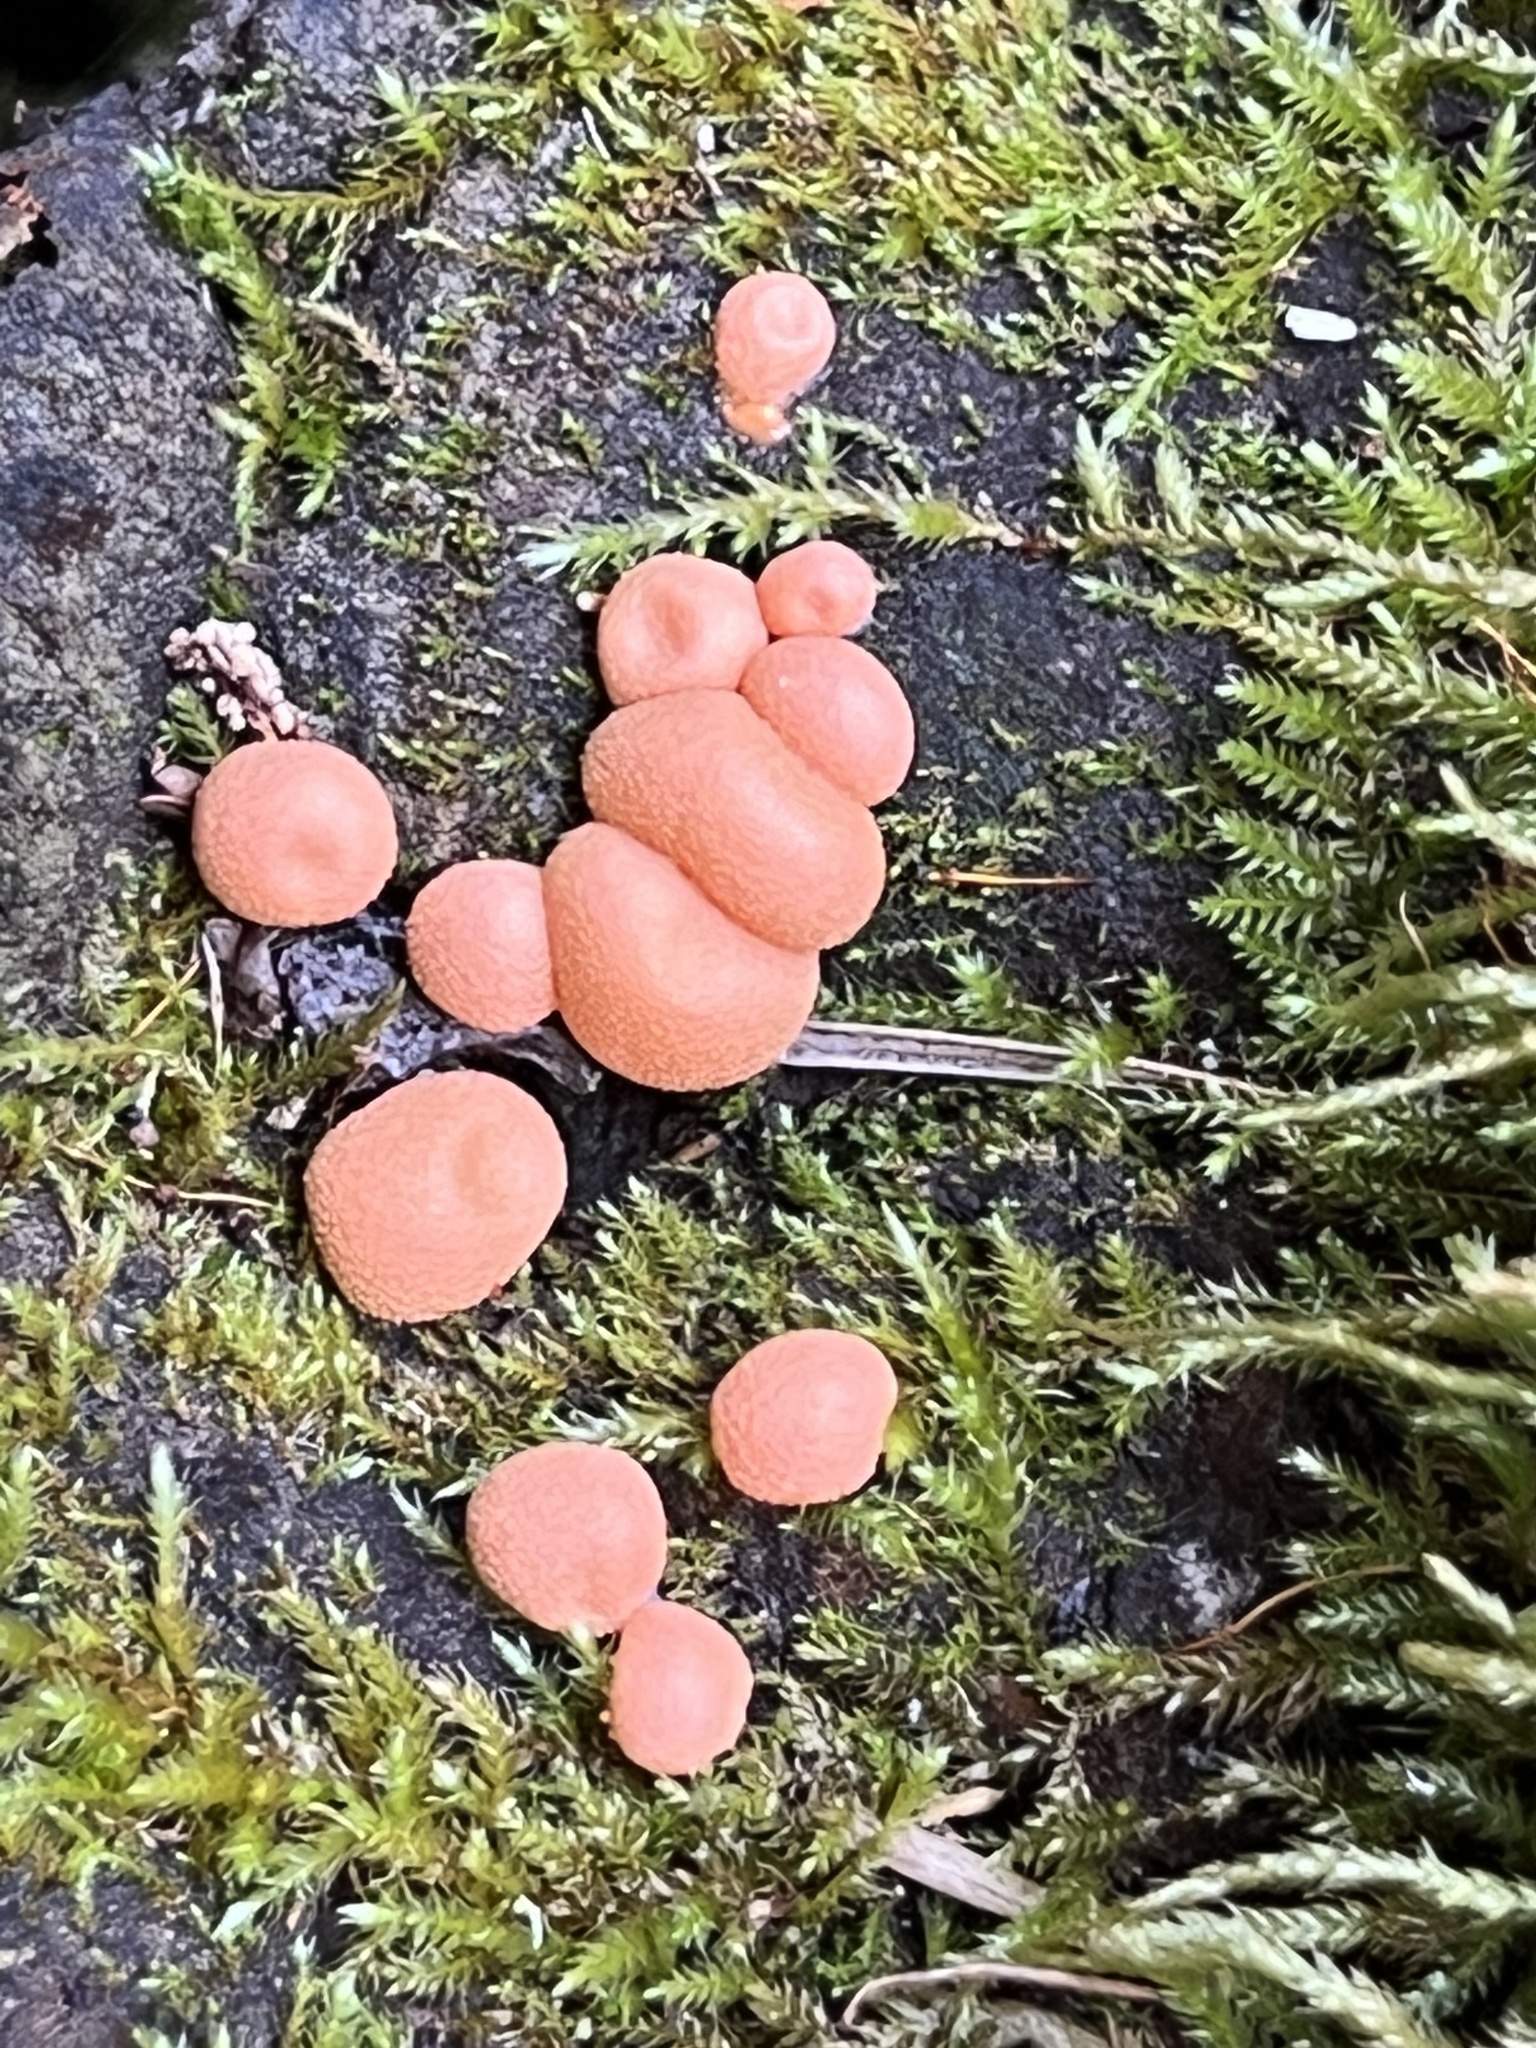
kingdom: Protozoa
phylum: Mycetozoa
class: Myxomycetes
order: Cribrariales
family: Tubiferaceae
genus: Lycogala
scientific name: Lycogala epidendrum
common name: Wolf's milk
